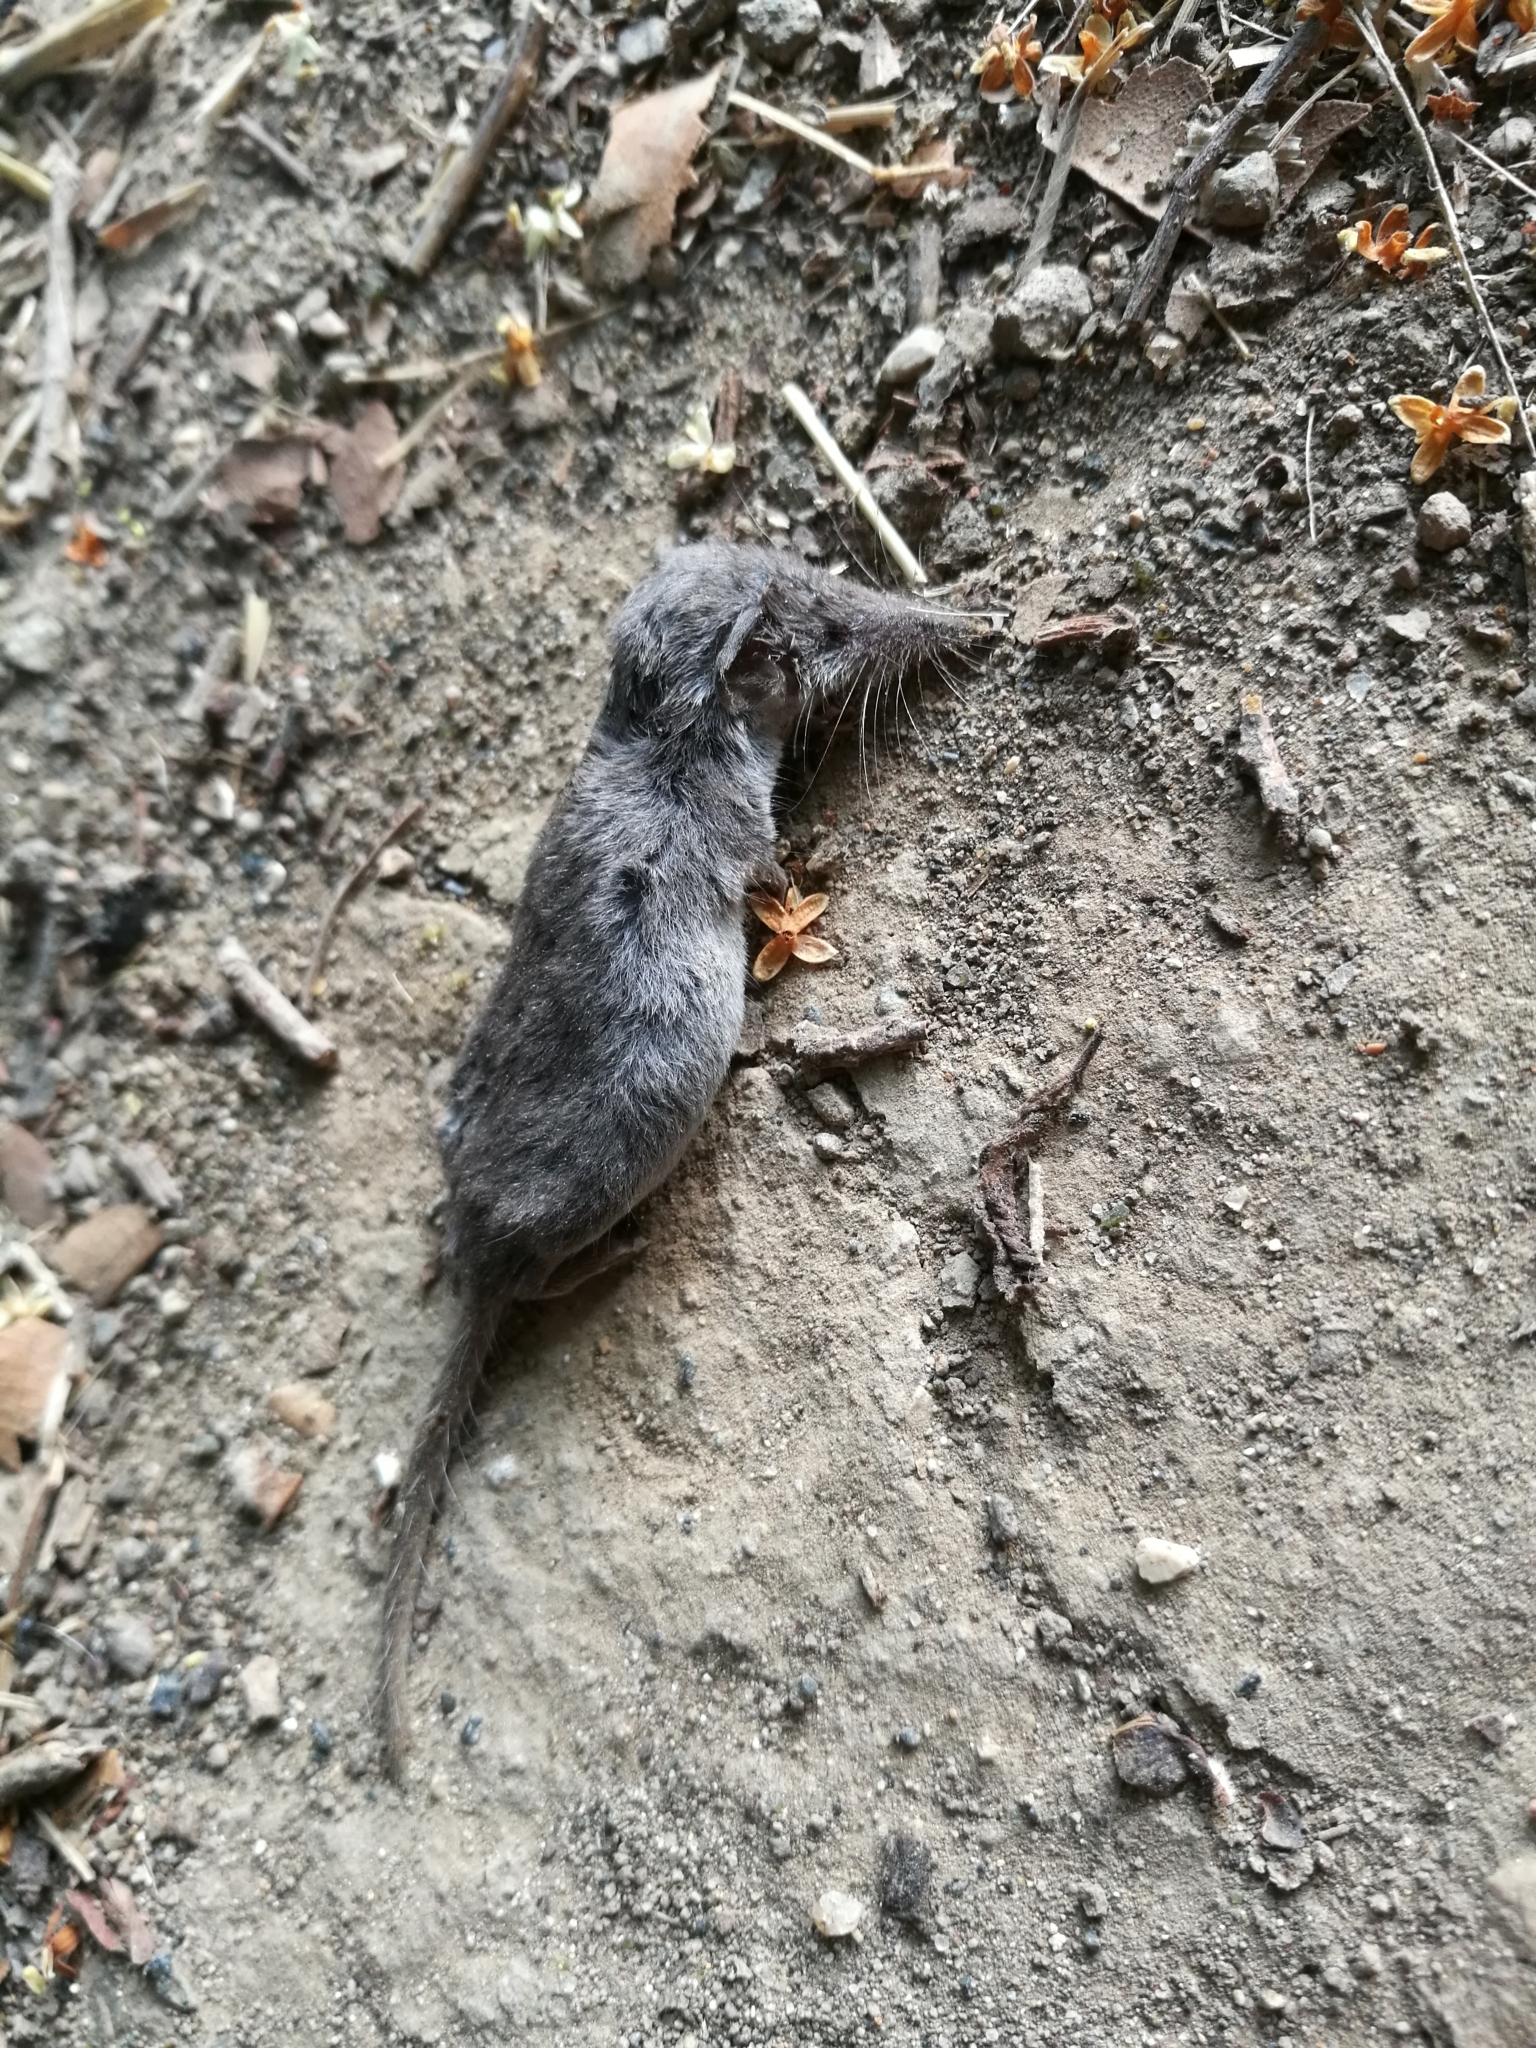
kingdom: Animalia
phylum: Chordata
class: Mammalia
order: Soricomorpha
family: Soricidae
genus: Suncus
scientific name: Suncus etruscus
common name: Etruscan shrew
